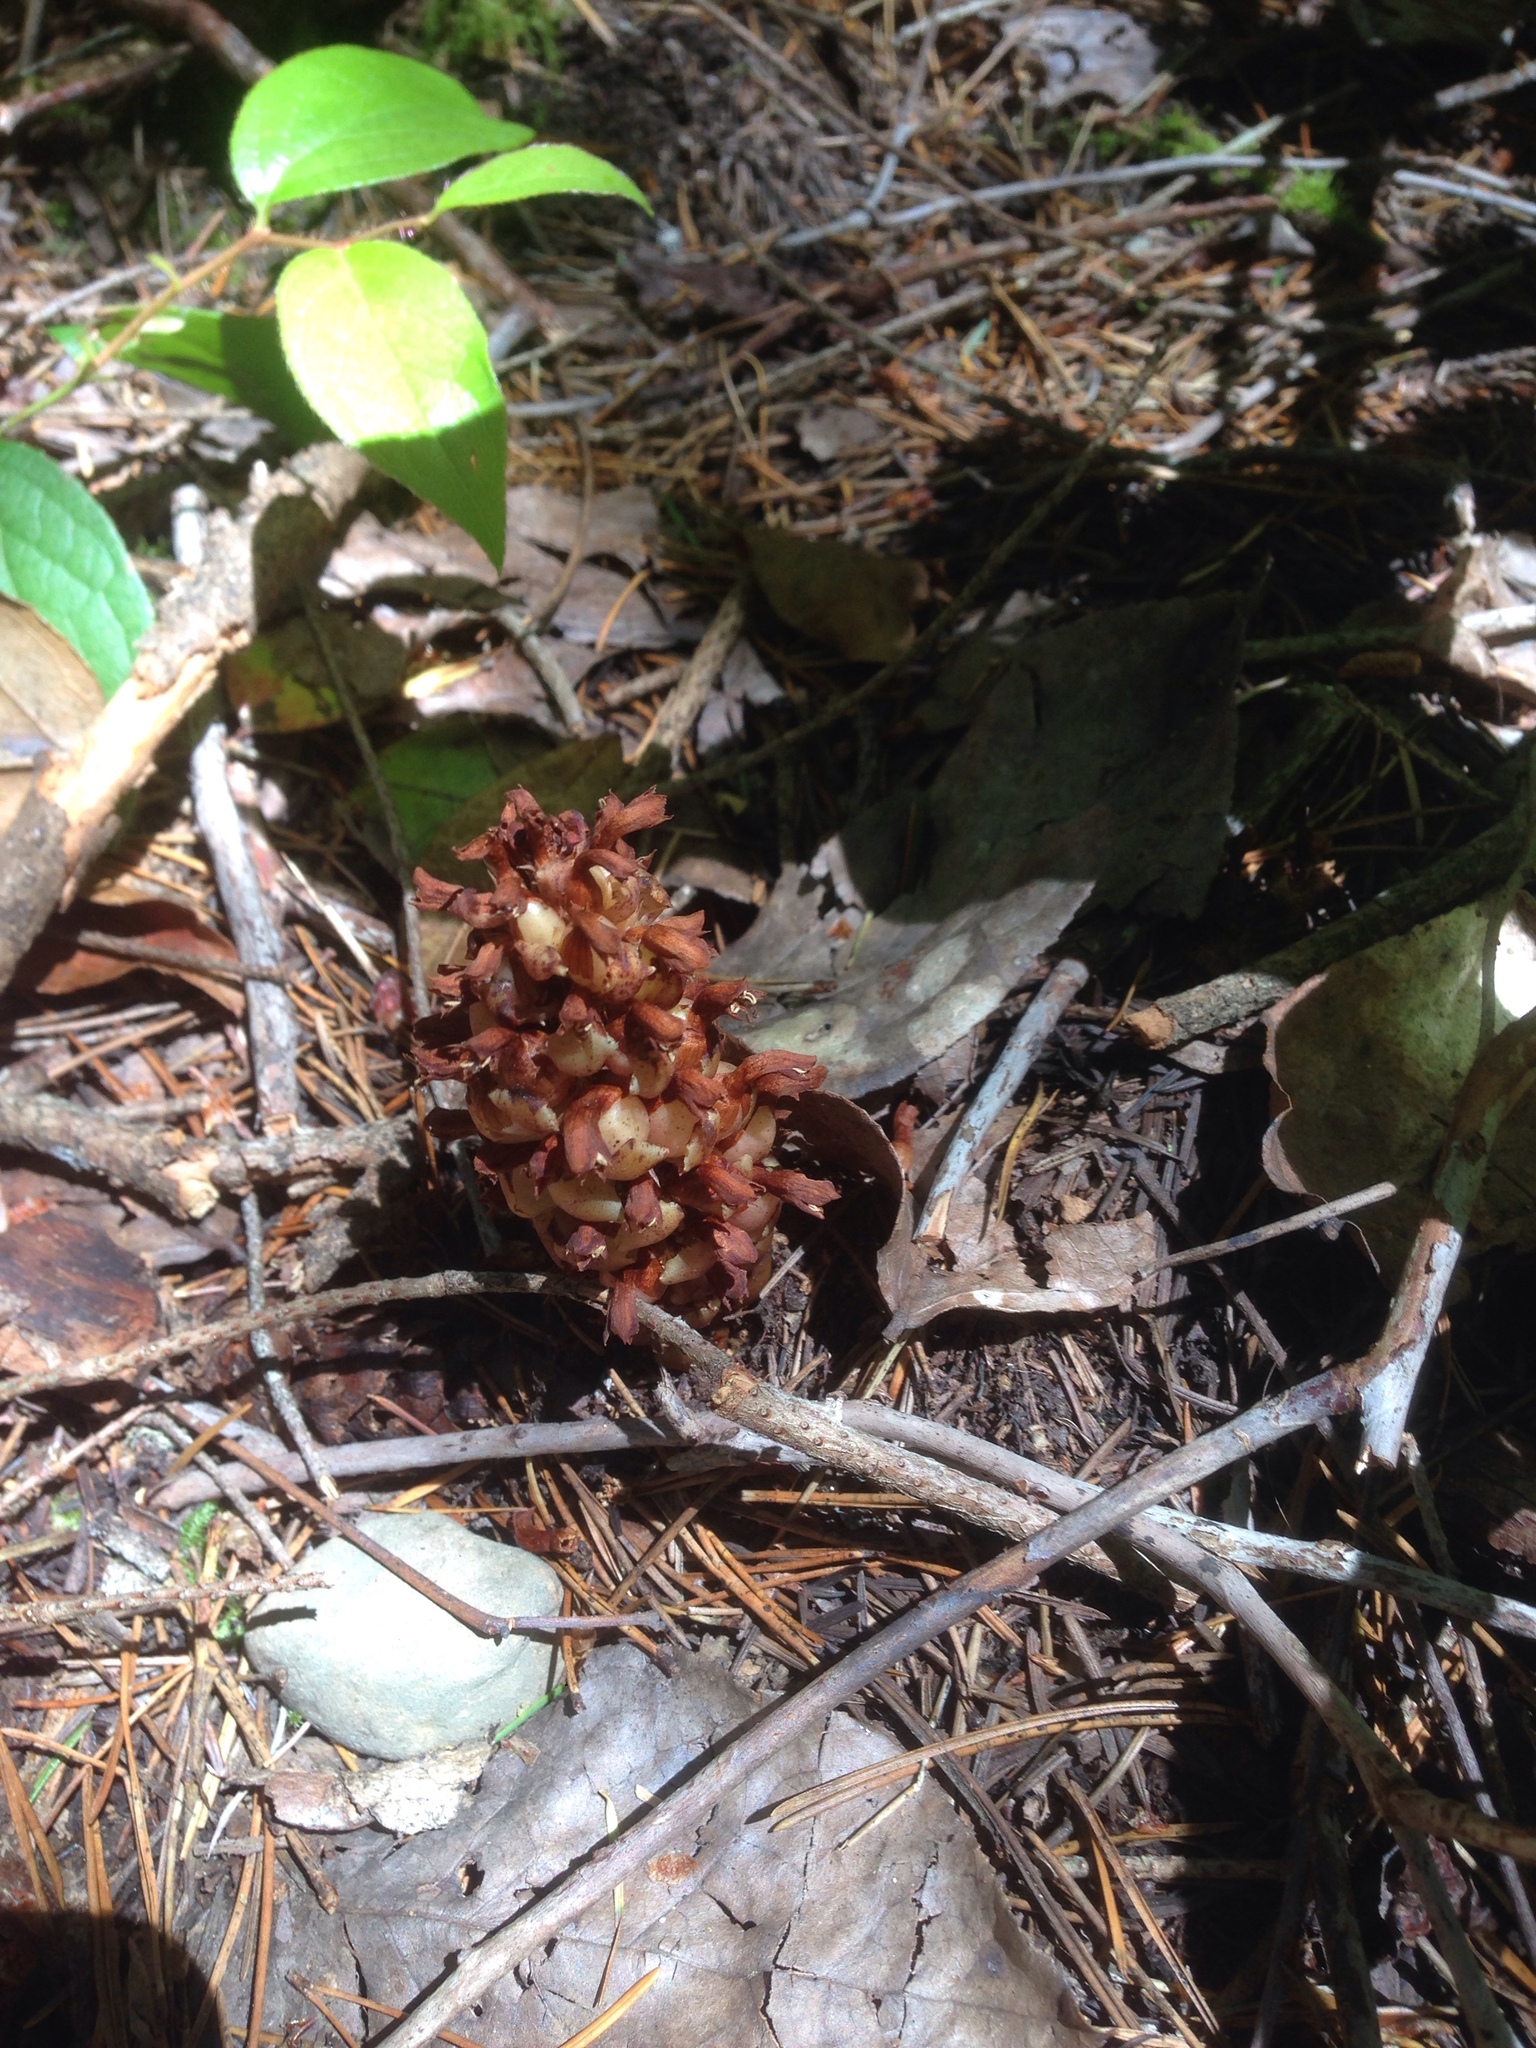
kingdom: Plantae
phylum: Tracheophyta
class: Magnoliopsida
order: Lamiales
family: Orobanchaceae
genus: Kopsiopsis
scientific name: Kopsiopsis hookeri
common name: Hooker's groundcone
